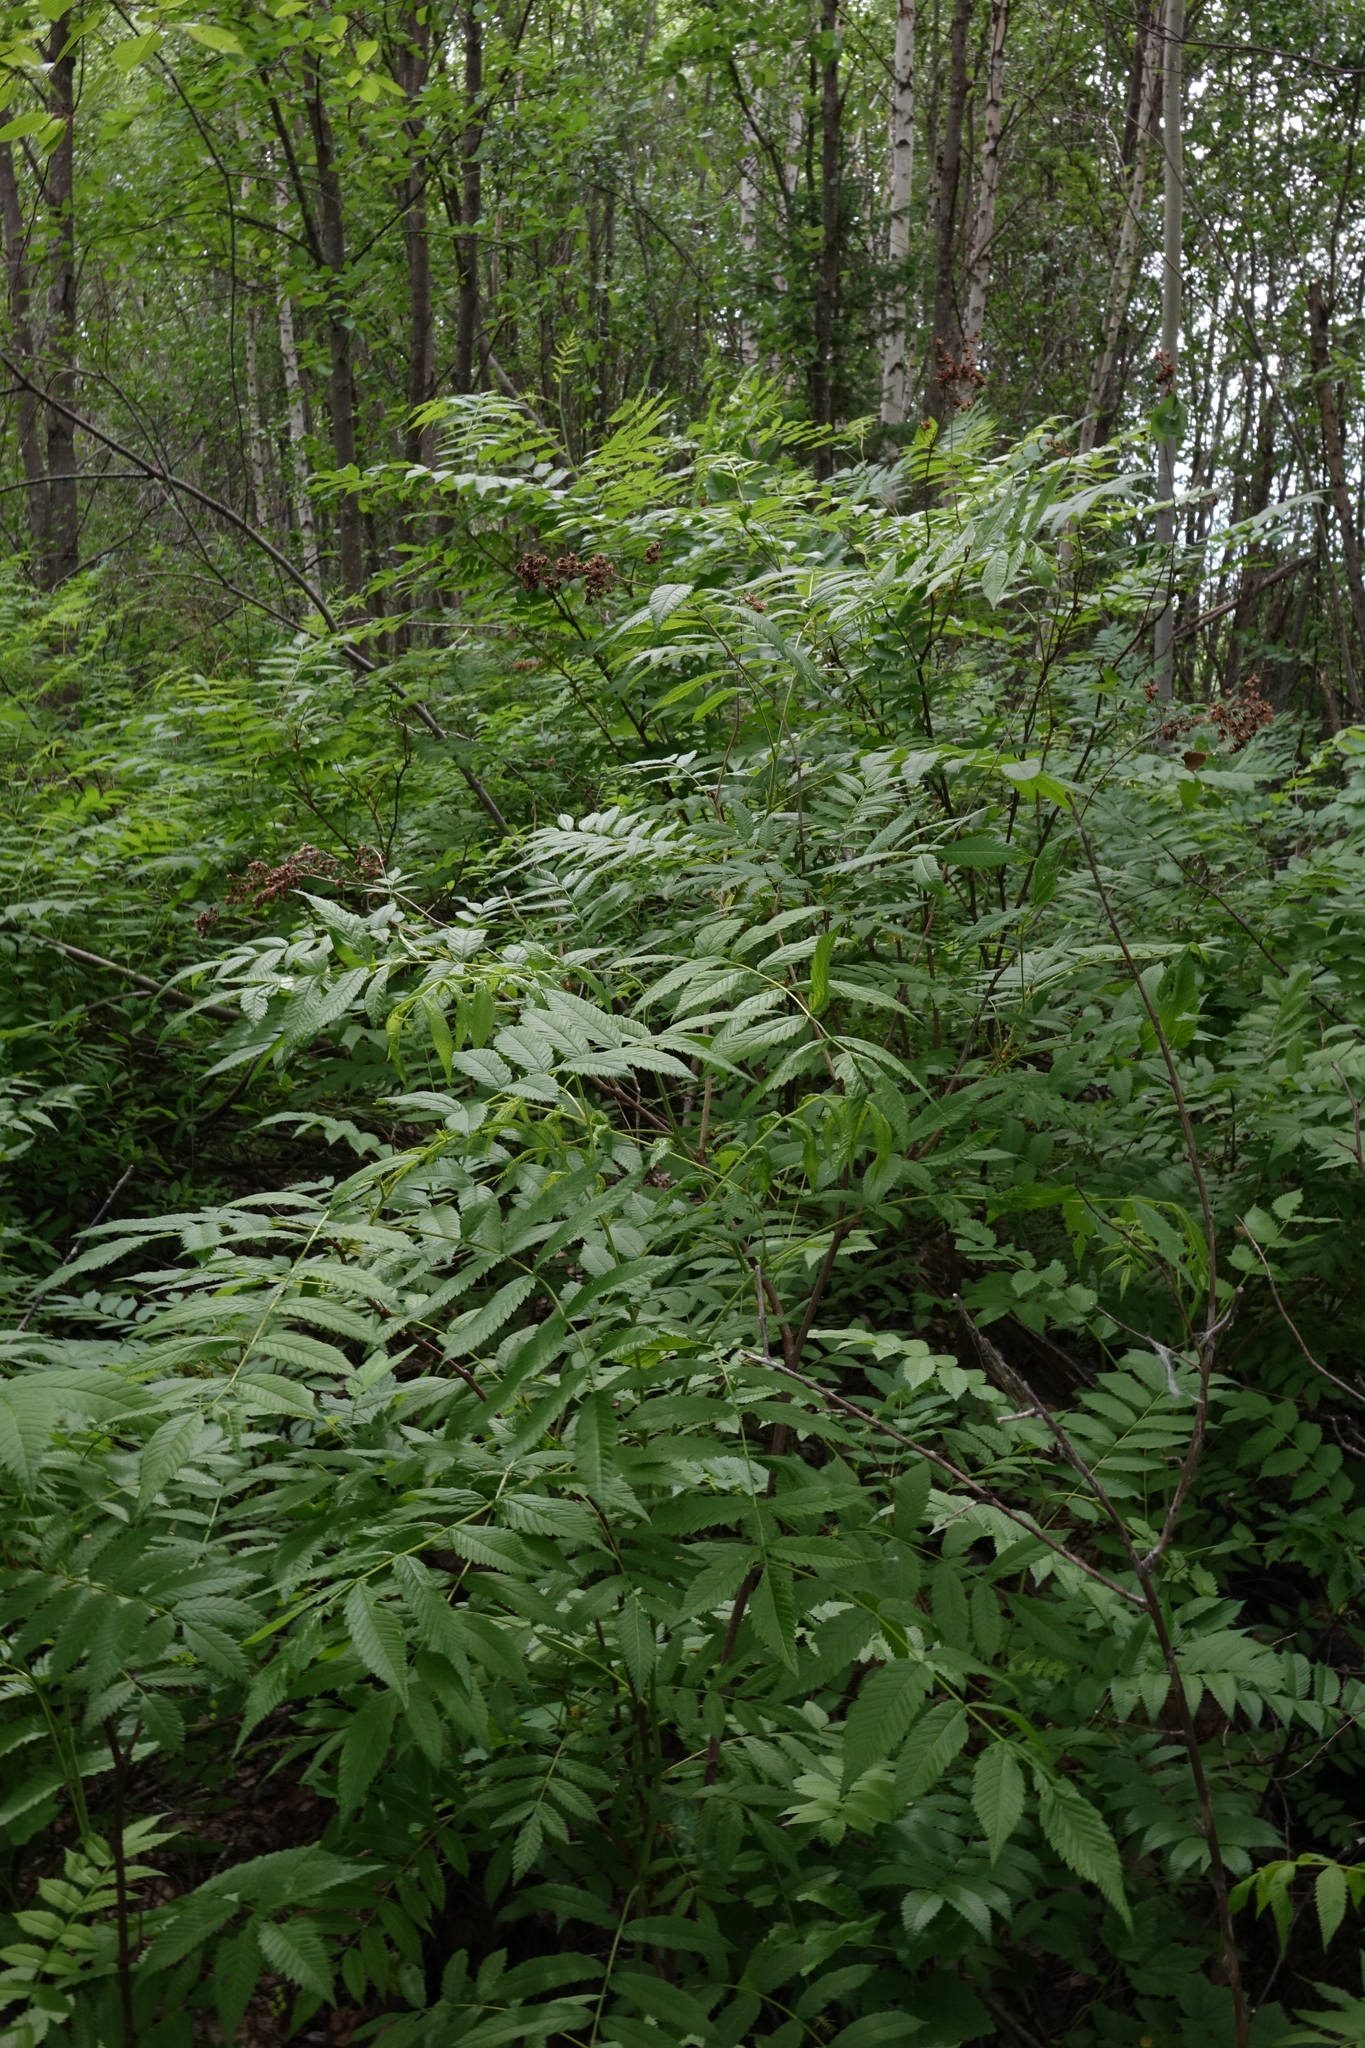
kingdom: Plantae
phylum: Tracheophyta
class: Magnoliopsida
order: Rosales
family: Rosaceae
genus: Sorbaria
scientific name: Sorbaria sorbifolia
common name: False spiraea
